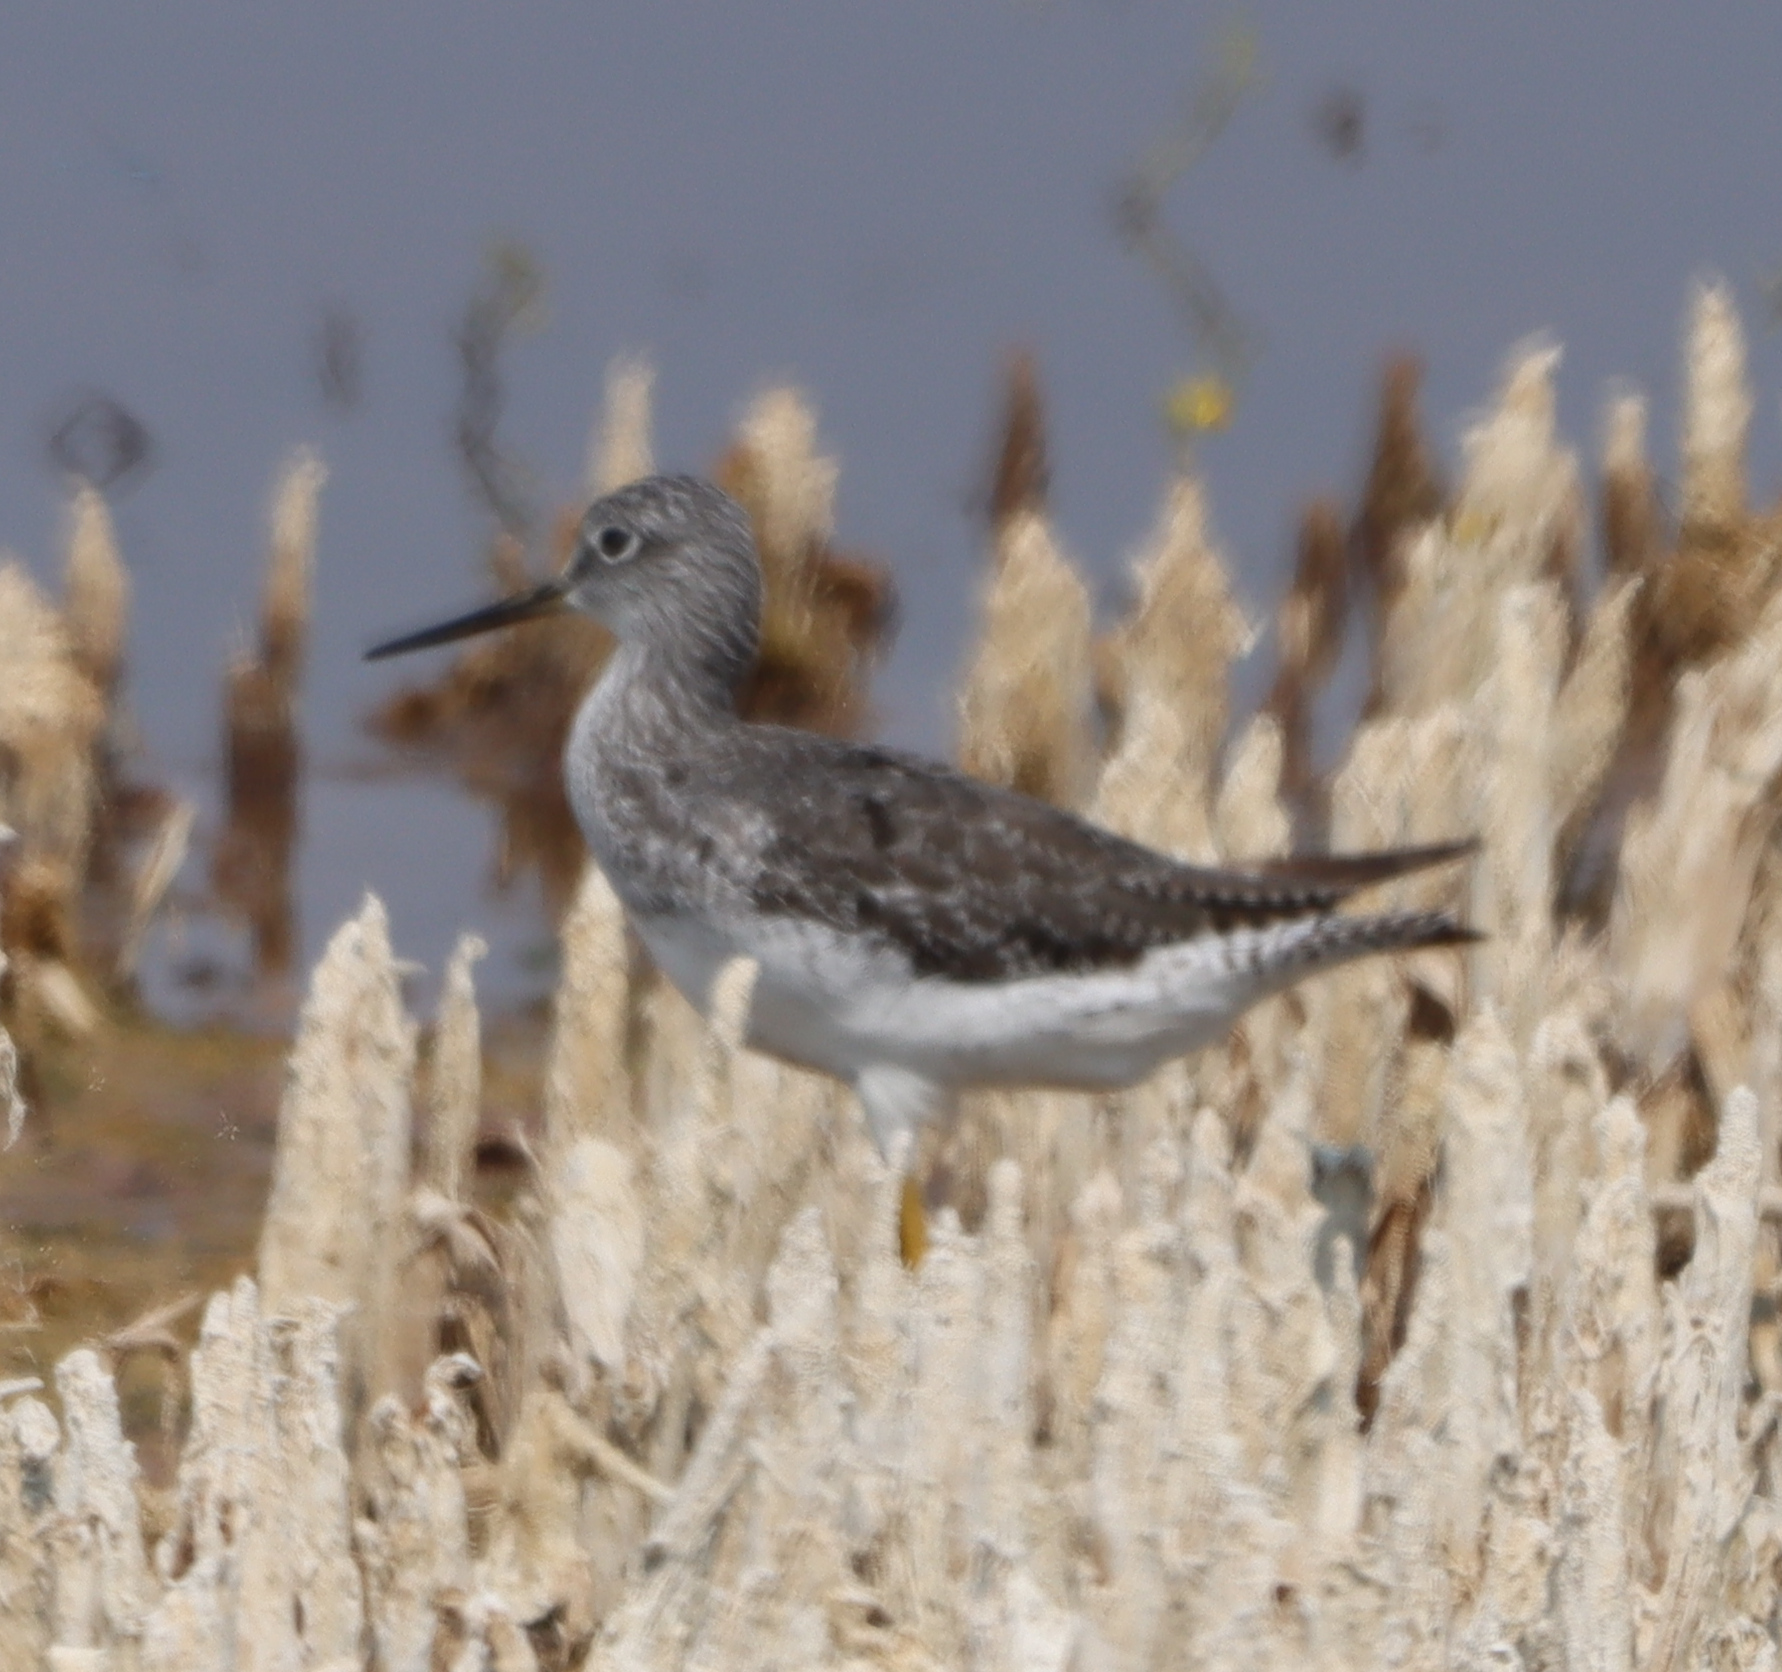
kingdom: Animalia
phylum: Chordata
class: Aves
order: Charadriiformes
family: Scolopacidae
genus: Tringa
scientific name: Tringa melanoleuca
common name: Greater yellowlegs
